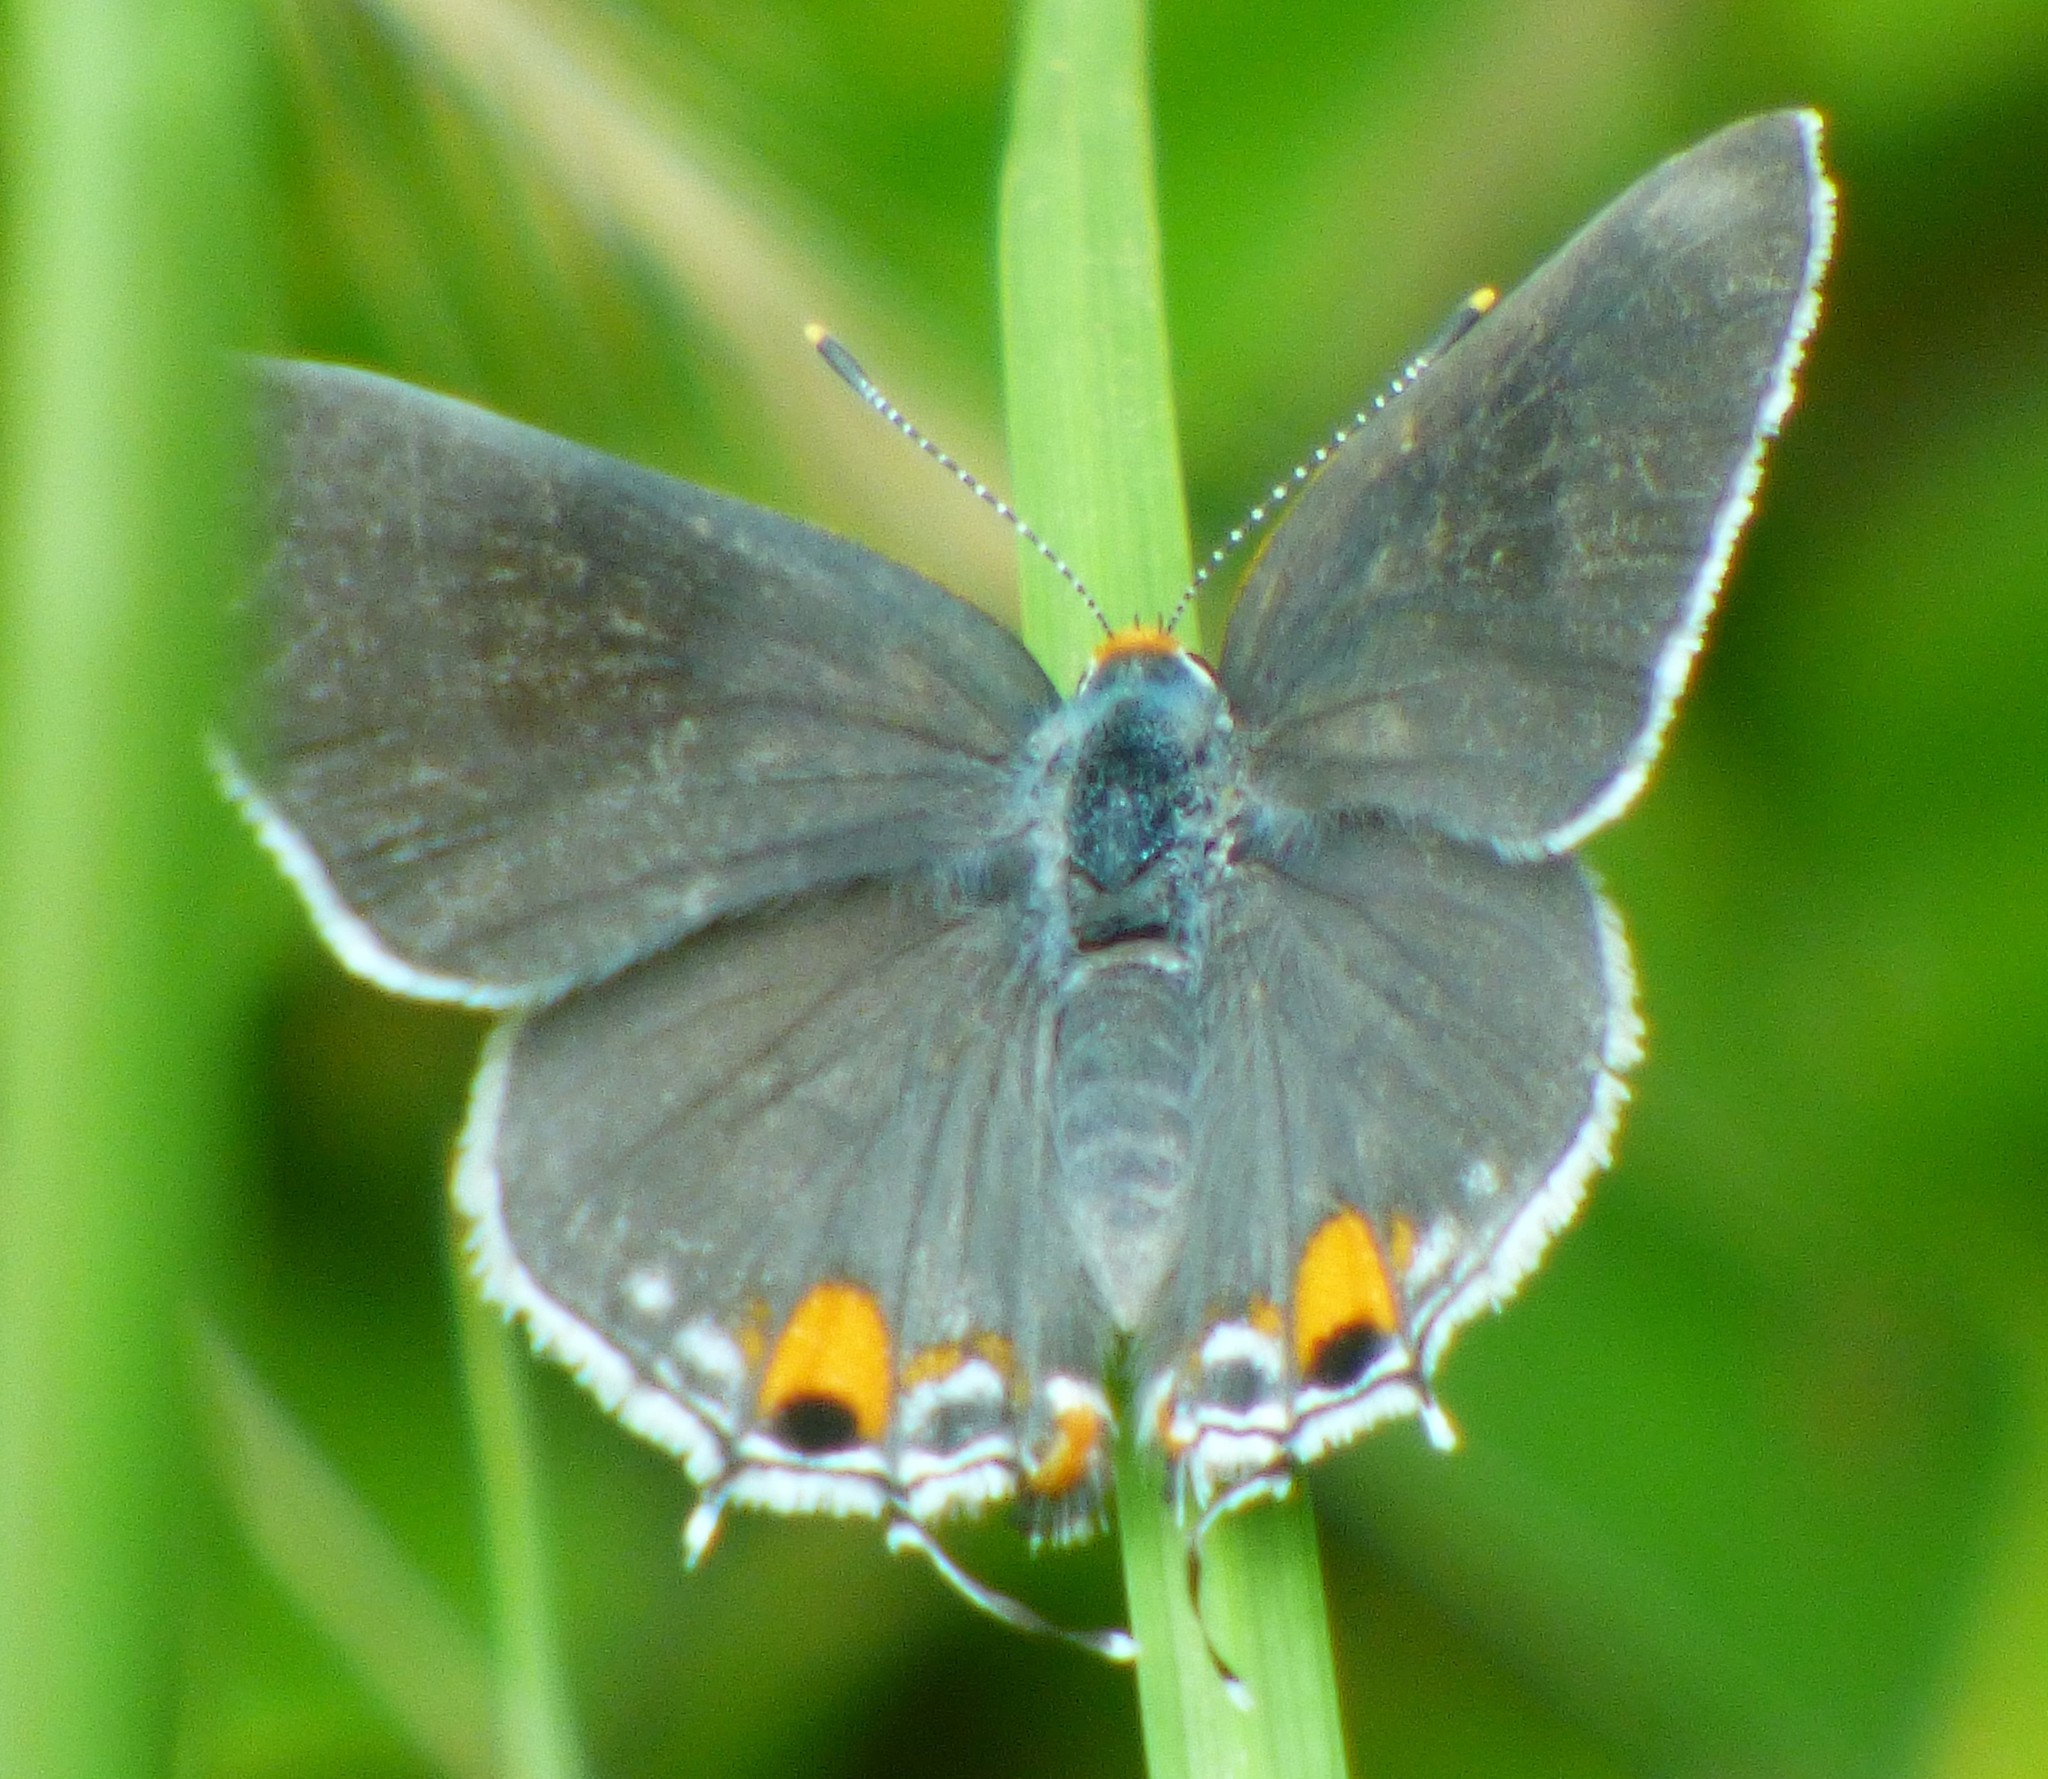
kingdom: Animalia
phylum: Arthropoda
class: Insecta
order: Lepidoptera
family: Lycaenidae
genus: Strymon
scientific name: Strymon melinus
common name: Gray hairstreak
